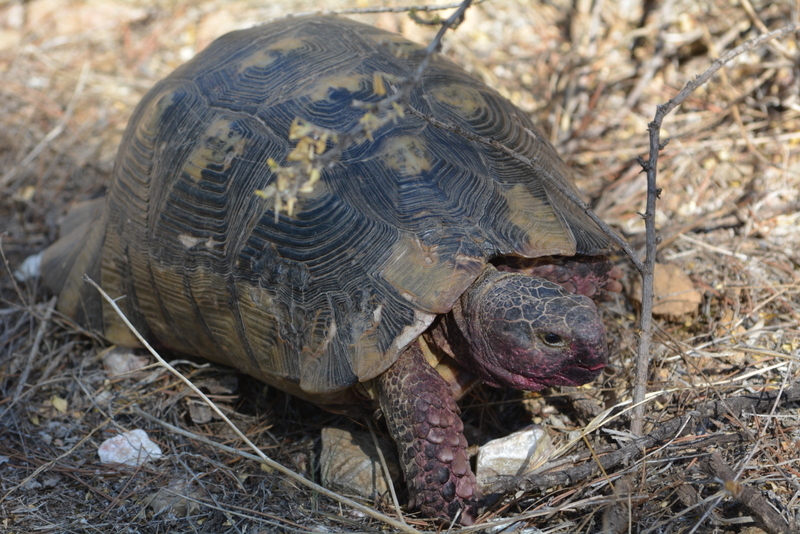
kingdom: Animalia
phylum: Chordata
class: Testudines
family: Testudinidae
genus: Testudo
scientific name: Testudo marginata
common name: Marginated tortoise
